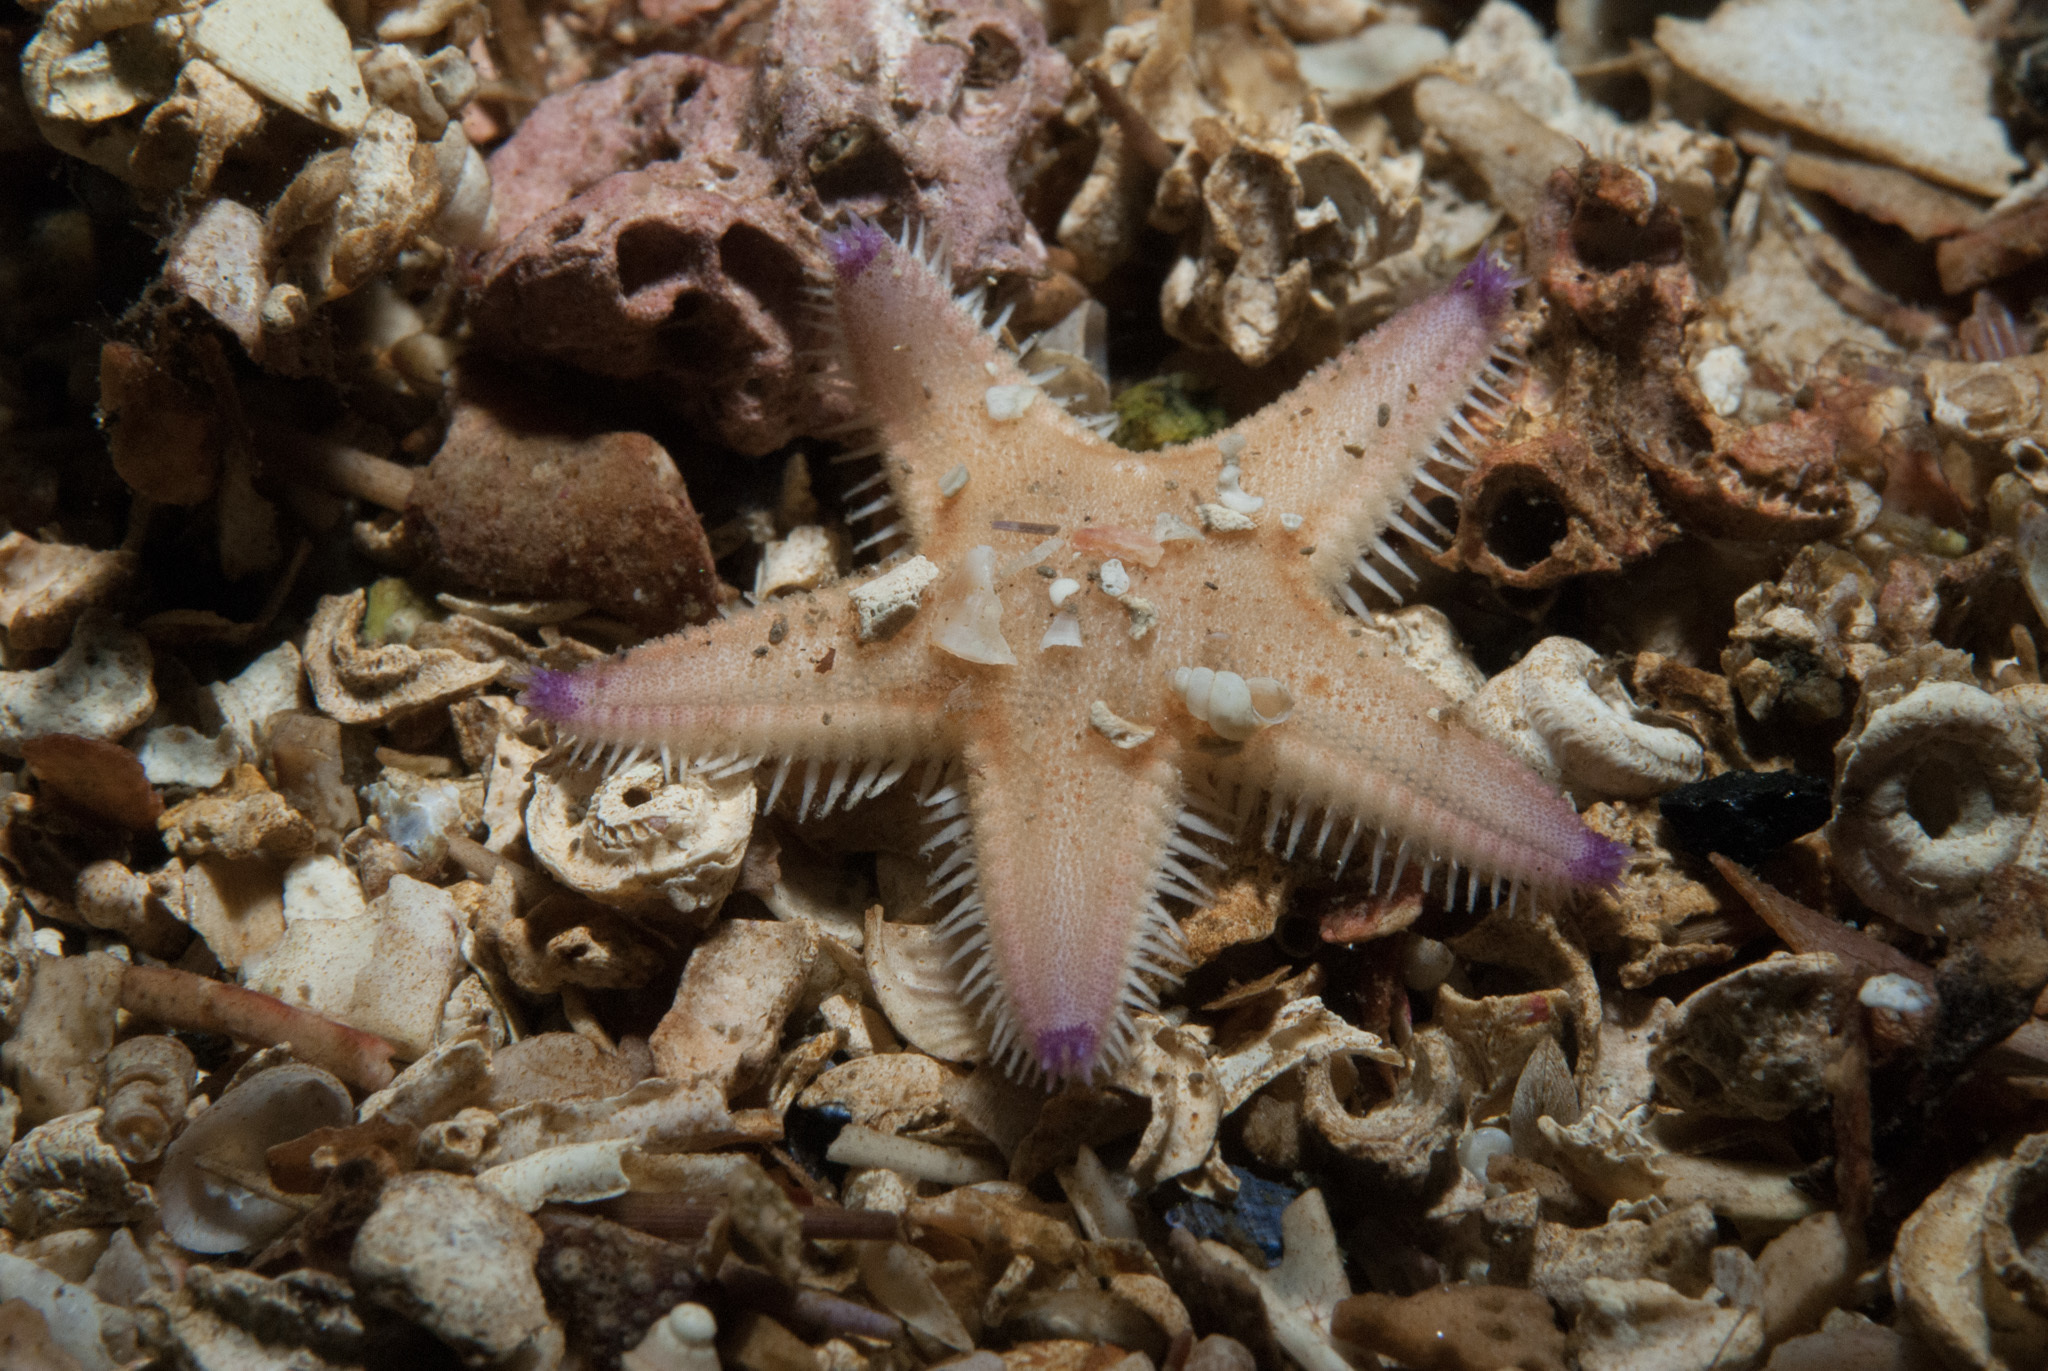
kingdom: Animalia
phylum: Echinodermata
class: Asteroidea
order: Paxillosida
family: Astropectinidae
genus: Astropecten
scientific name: Astropecten irregularis
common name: Sand star
